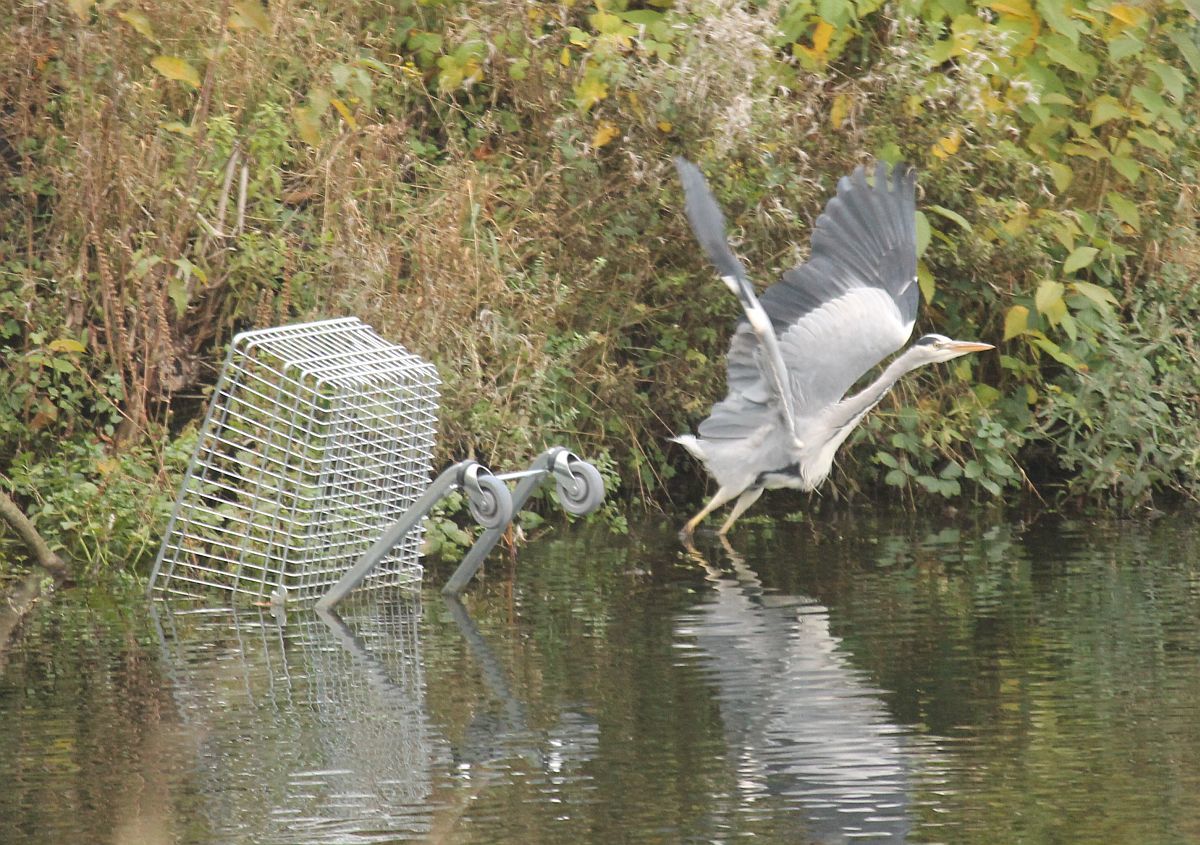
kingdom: Animalia
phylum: Chordata
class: Aves
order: Pelecaniformes
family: Ardeidae
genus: Ardea
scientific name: Ardea cinerea
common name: Grey heron
